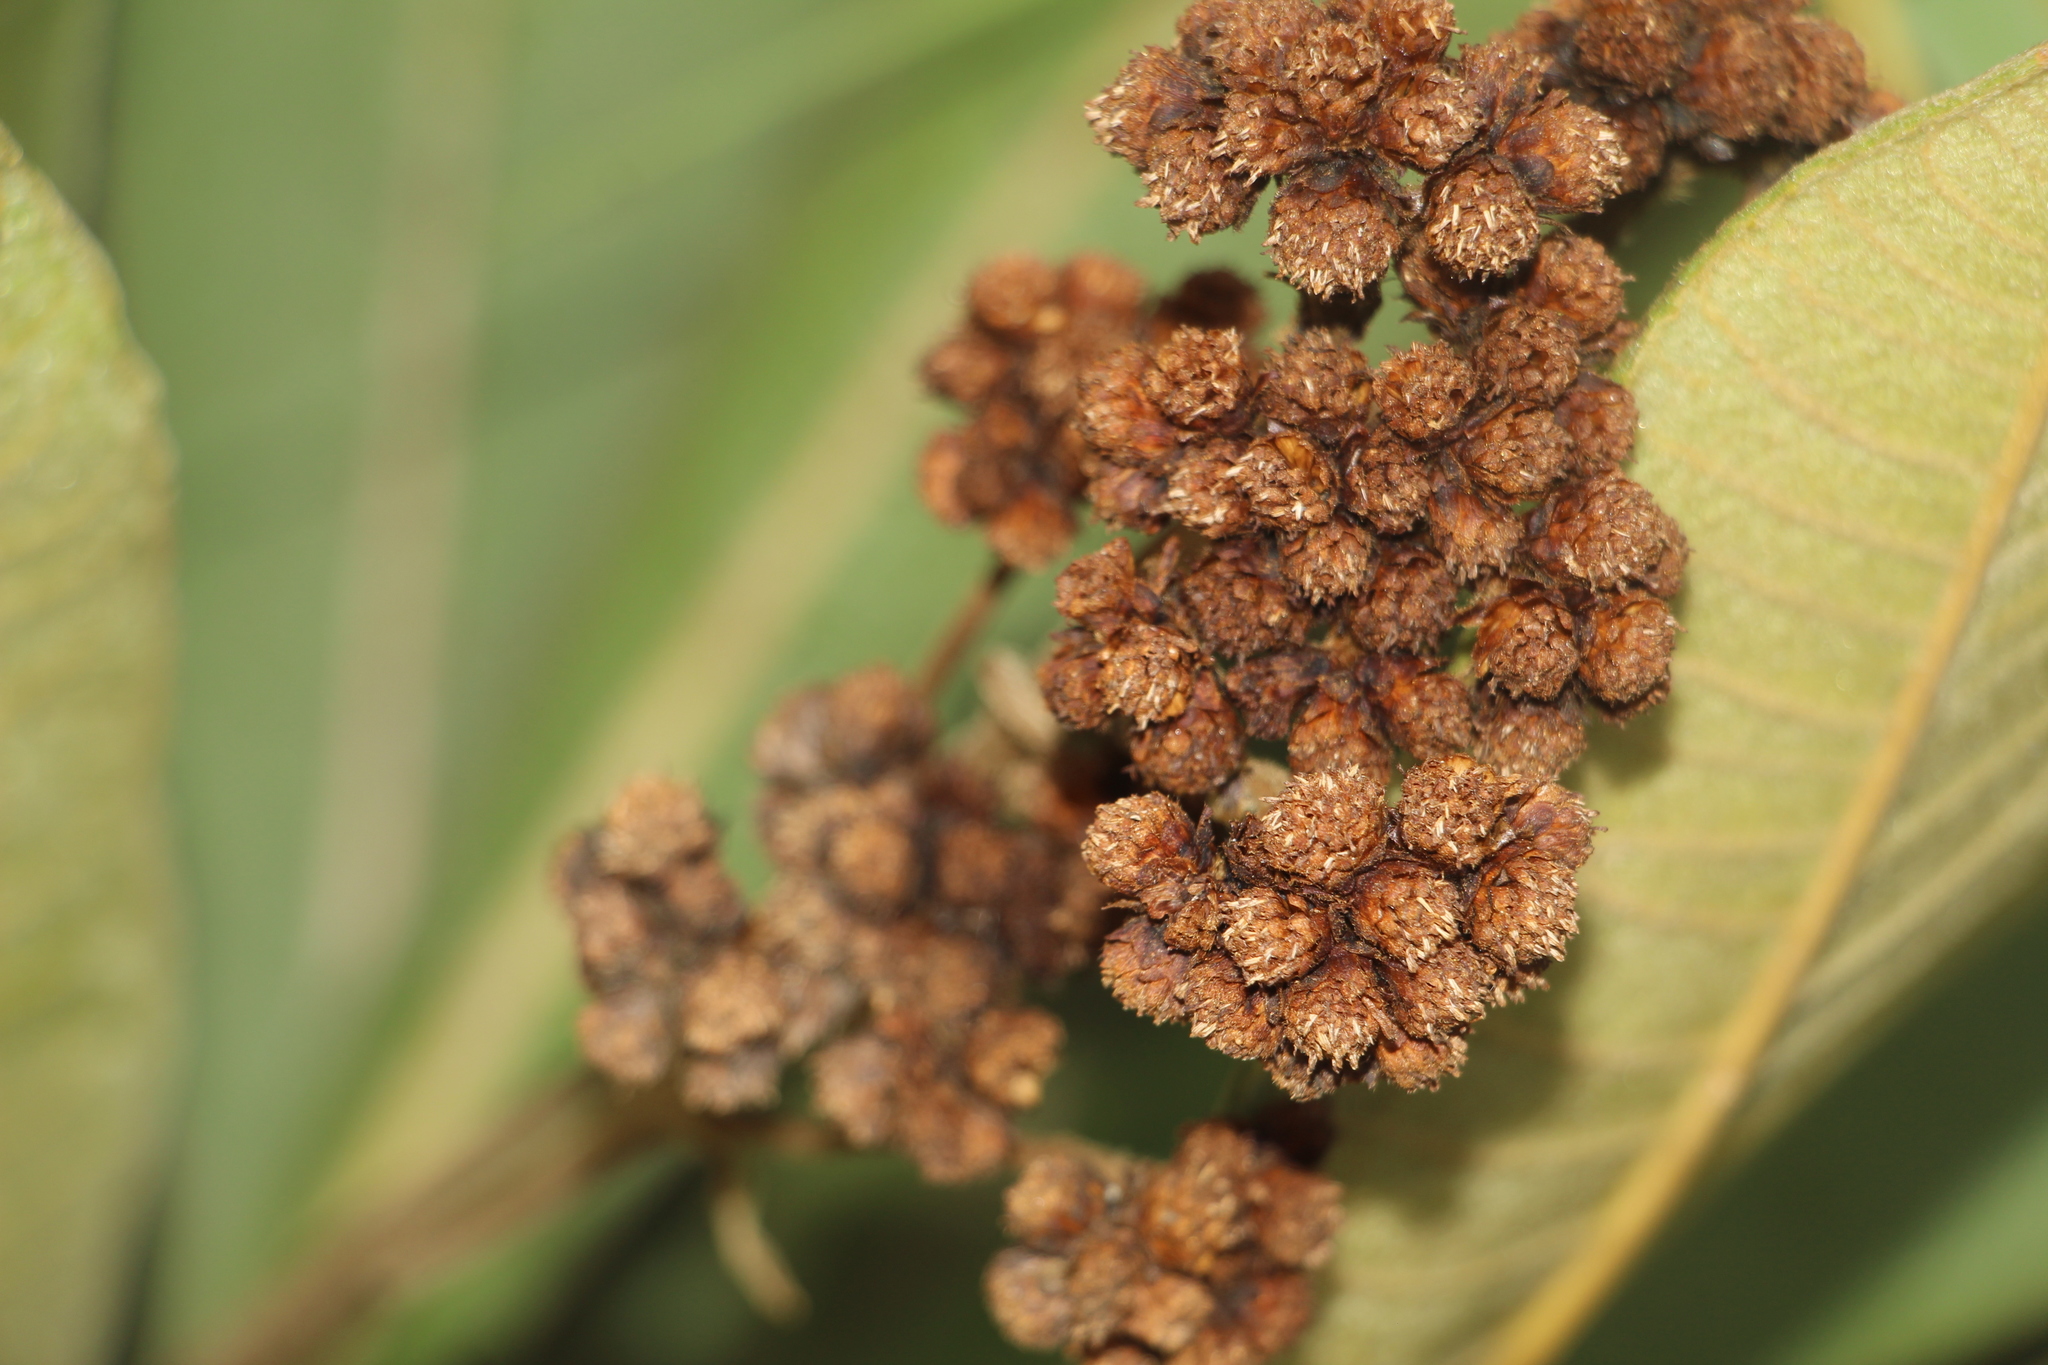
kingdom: Plantae
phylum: Tracheophyta
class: Magnoliopsida
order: Asterales
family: Asteraceae
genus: Espeletia
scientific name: Espeletia garciae
